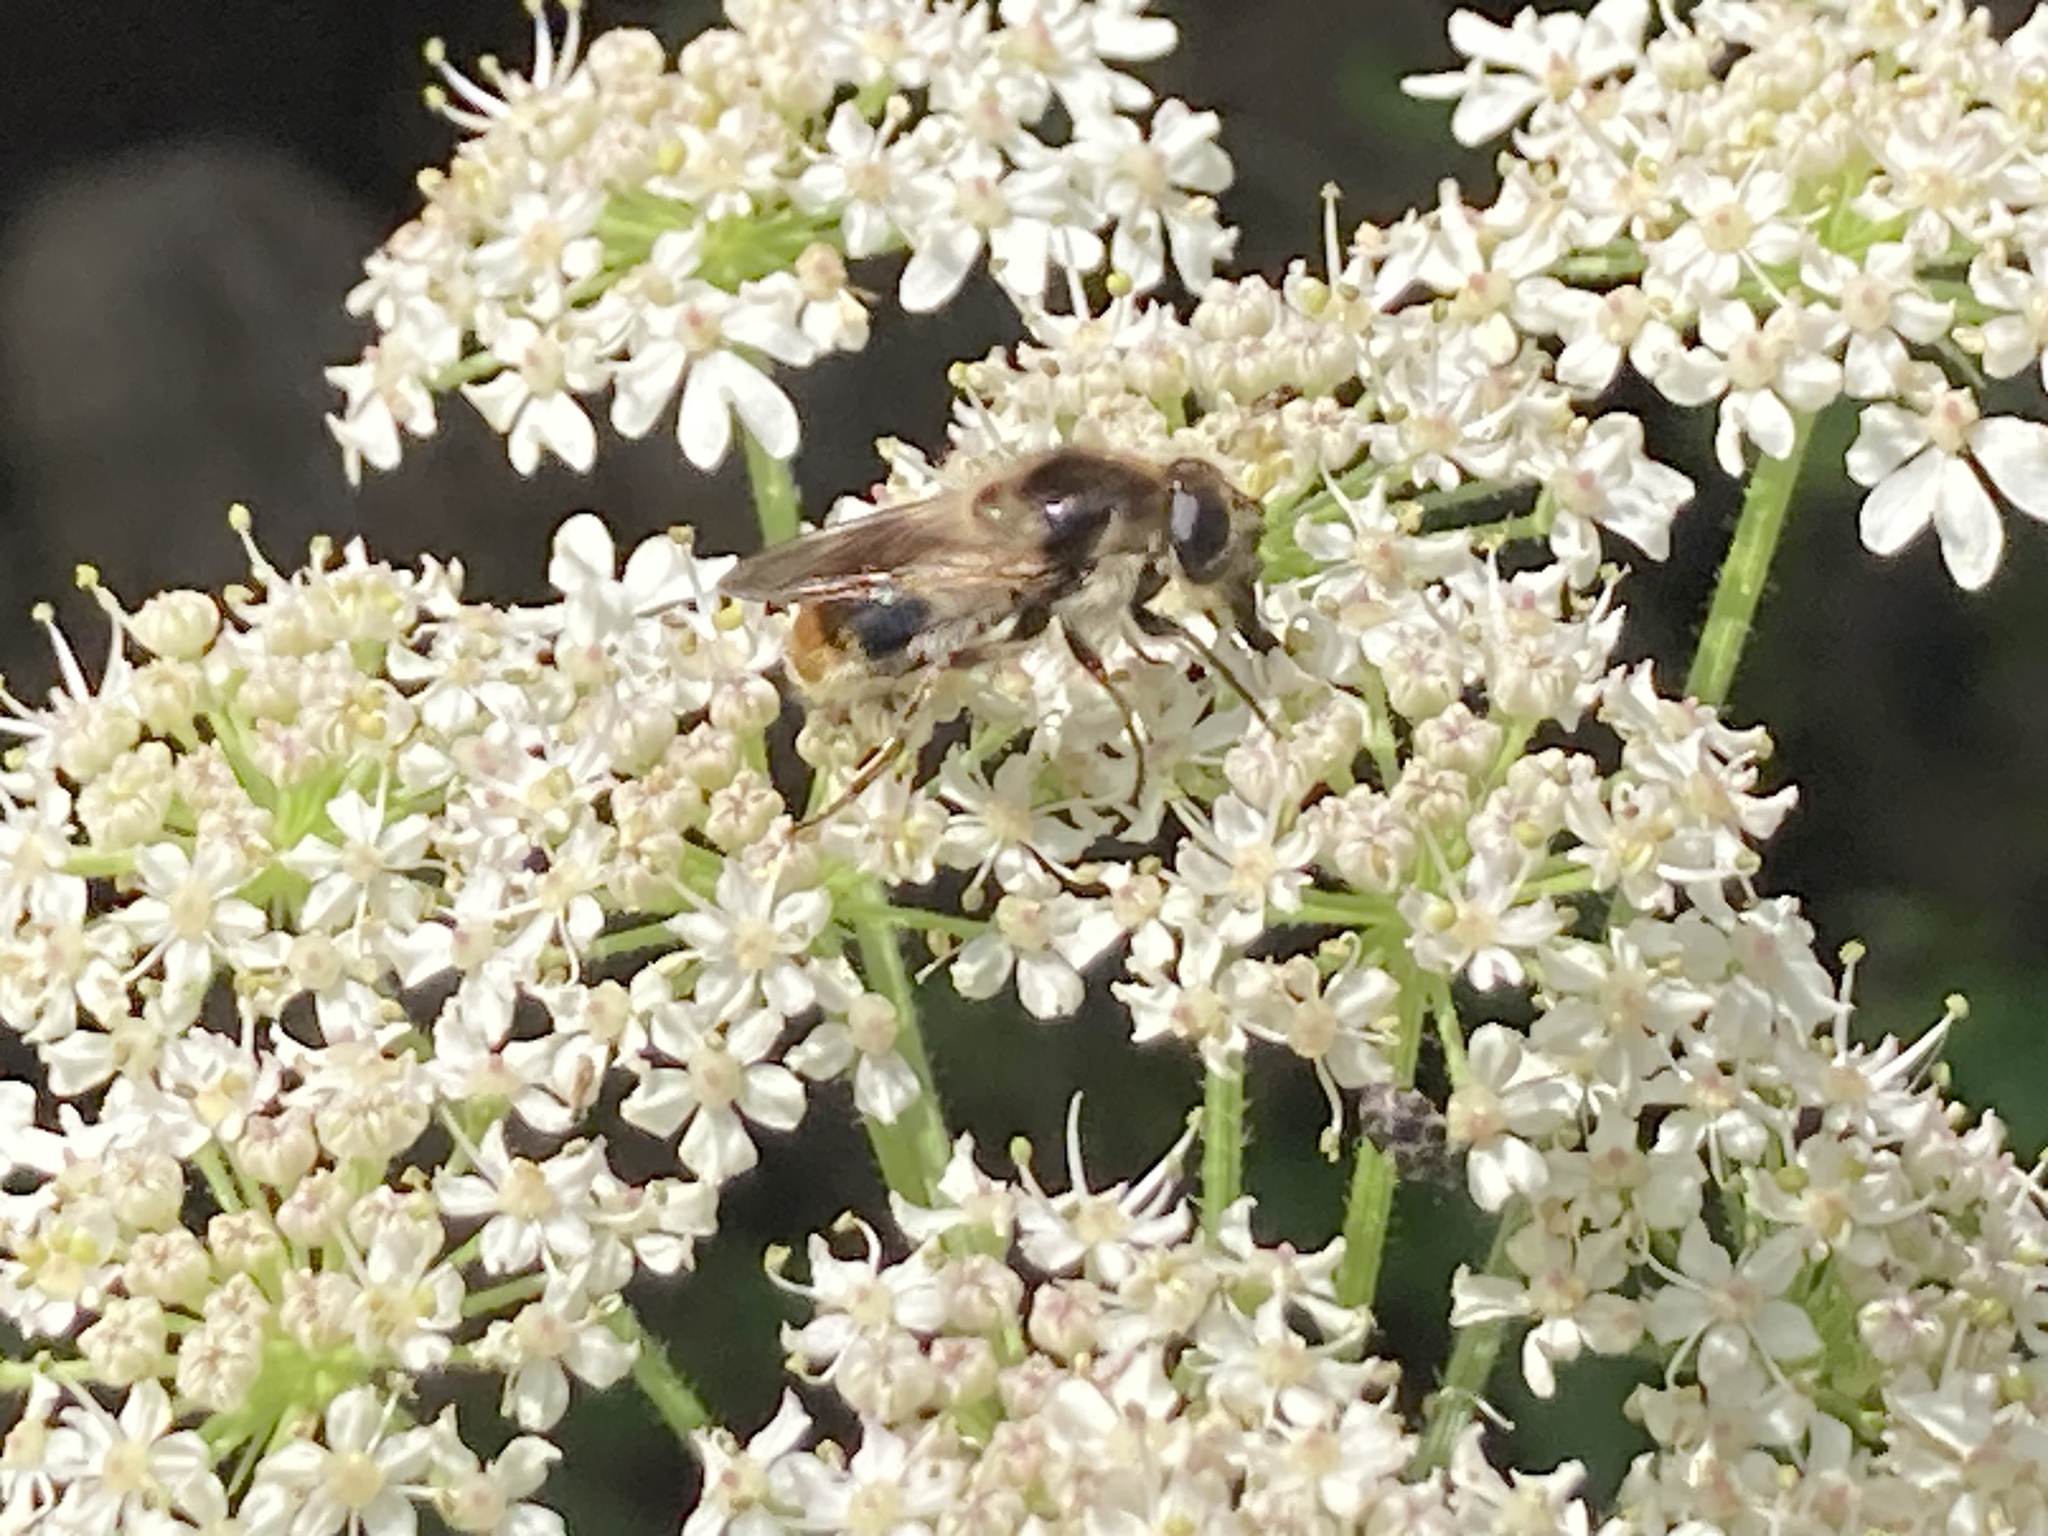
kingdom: Animalia
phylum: Arthropoda
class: Insecta
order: Diptera
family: Syrphidae
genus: Cheilosia
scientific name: Cheilosia illustrata
